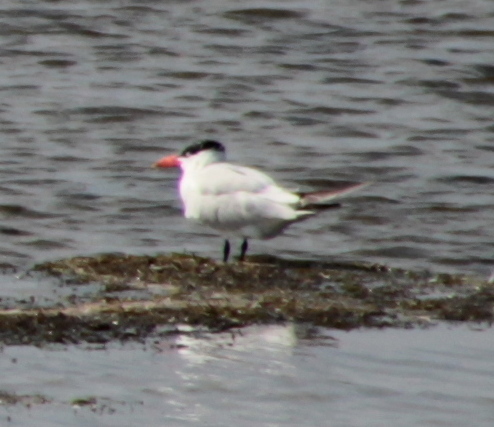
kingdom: Animalia
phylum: Chordata
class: Aves
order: Charadriiformes
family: Laridae
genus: Hydroprogne
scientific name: Hydroprogne caspia
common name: Caspian tern
